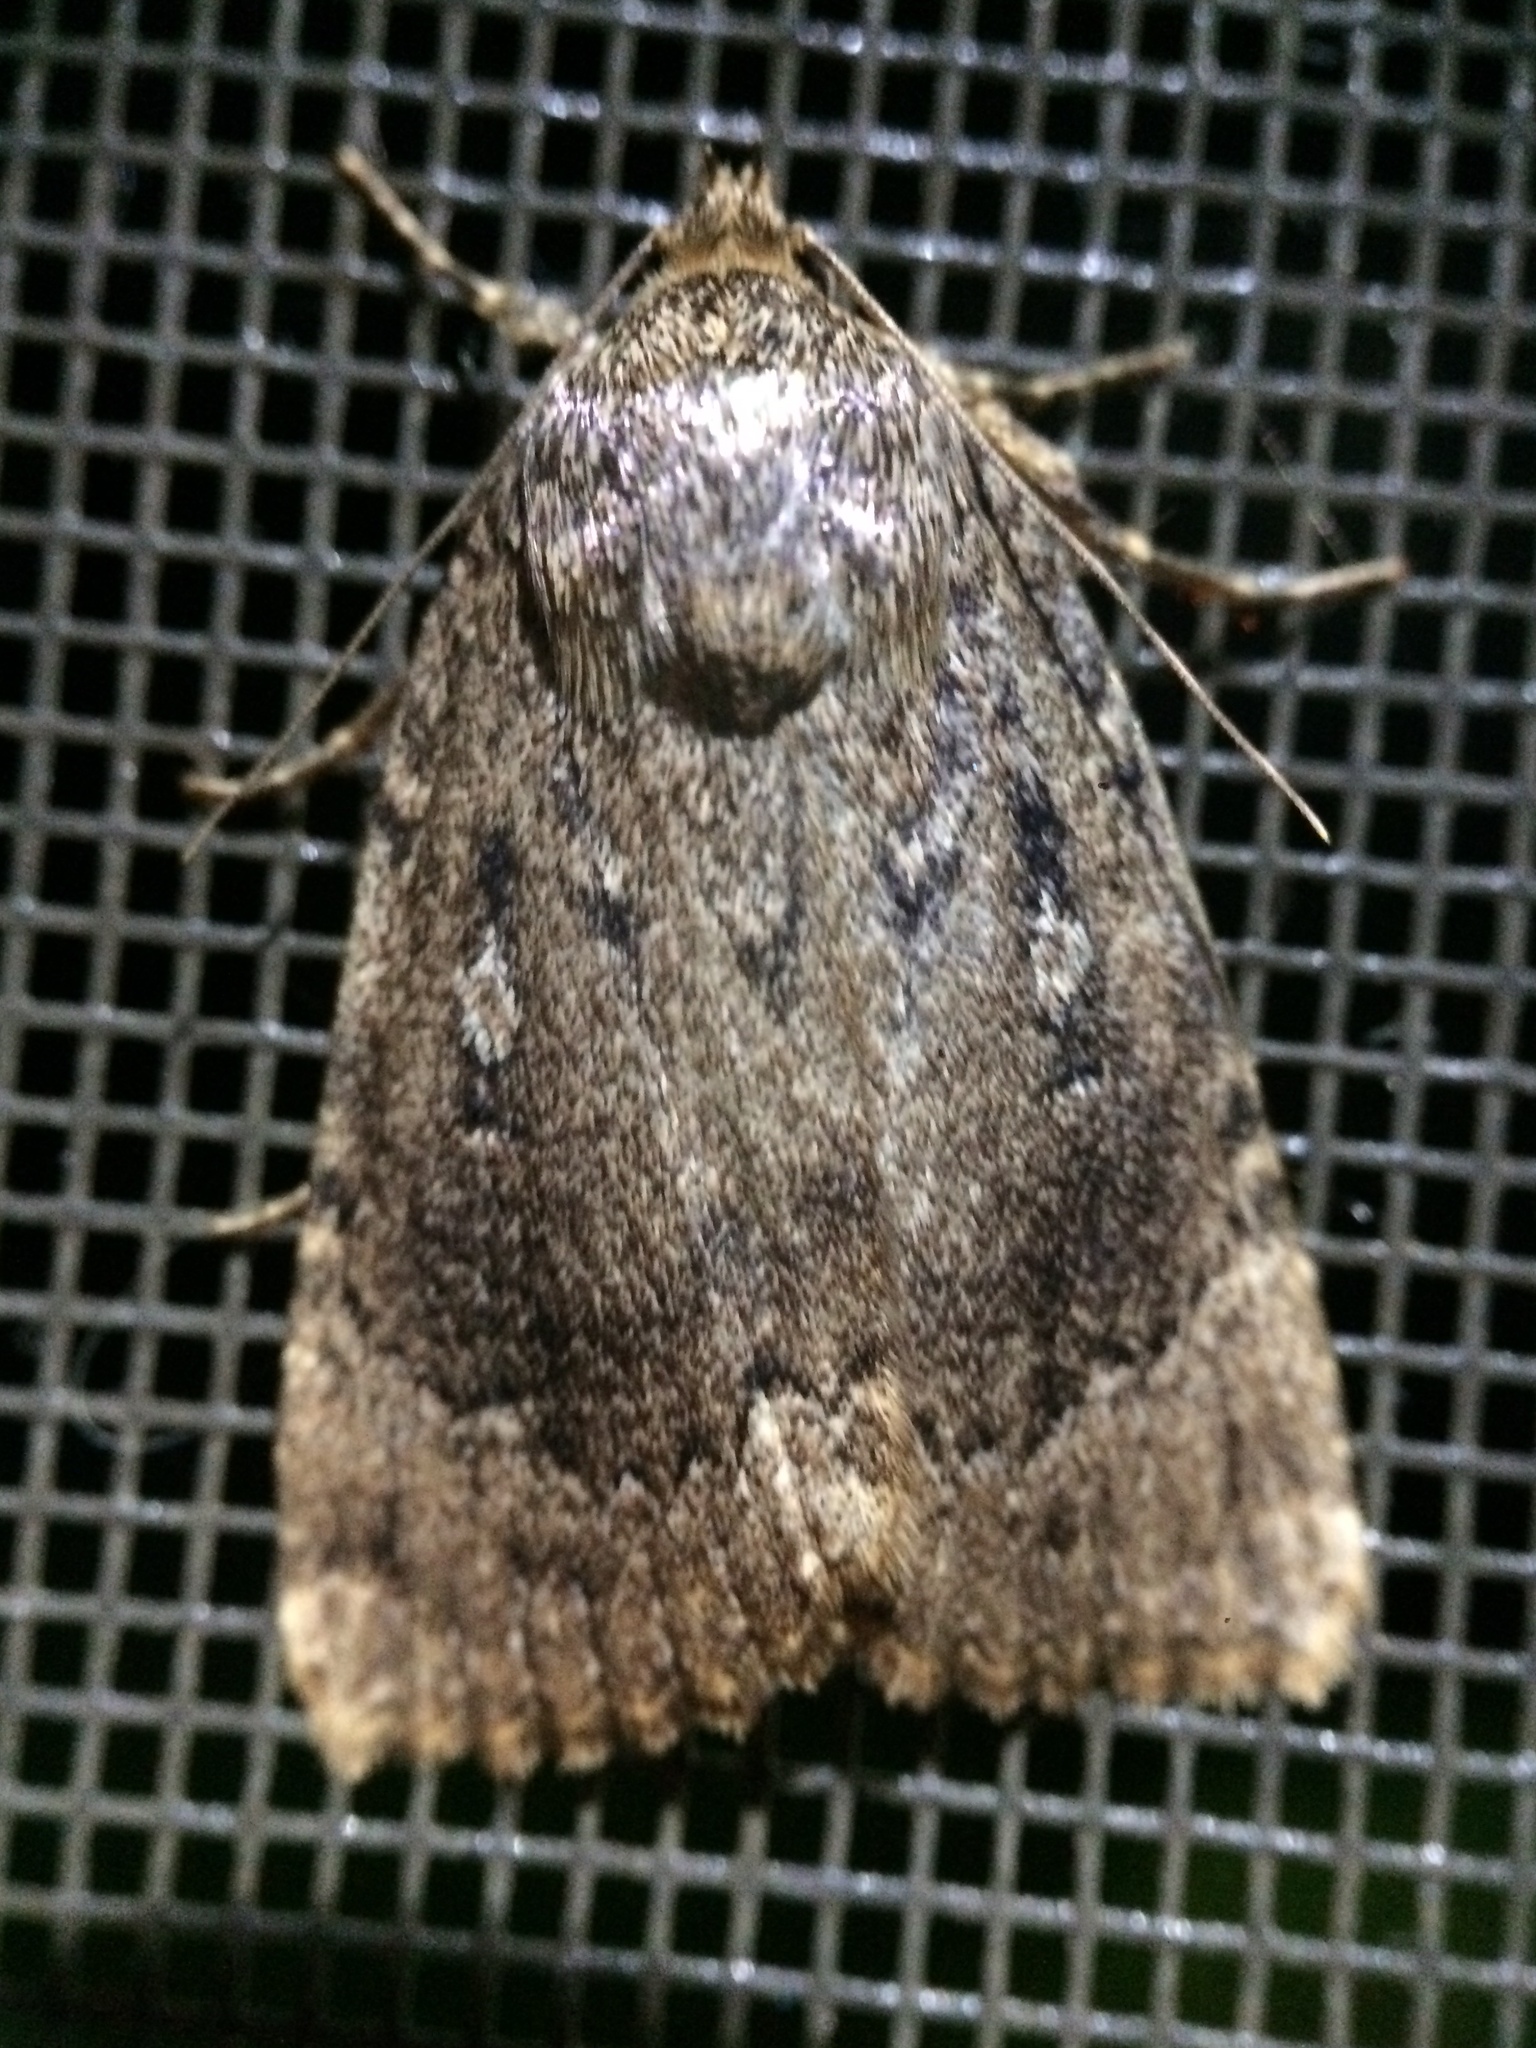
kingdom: Animalia
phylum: Arthropoda
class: Insecta
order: Lepidoptera
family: Noctuidae
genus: Amphipyra
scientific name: Amphipyra pyramidoides
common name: American copper underwing
